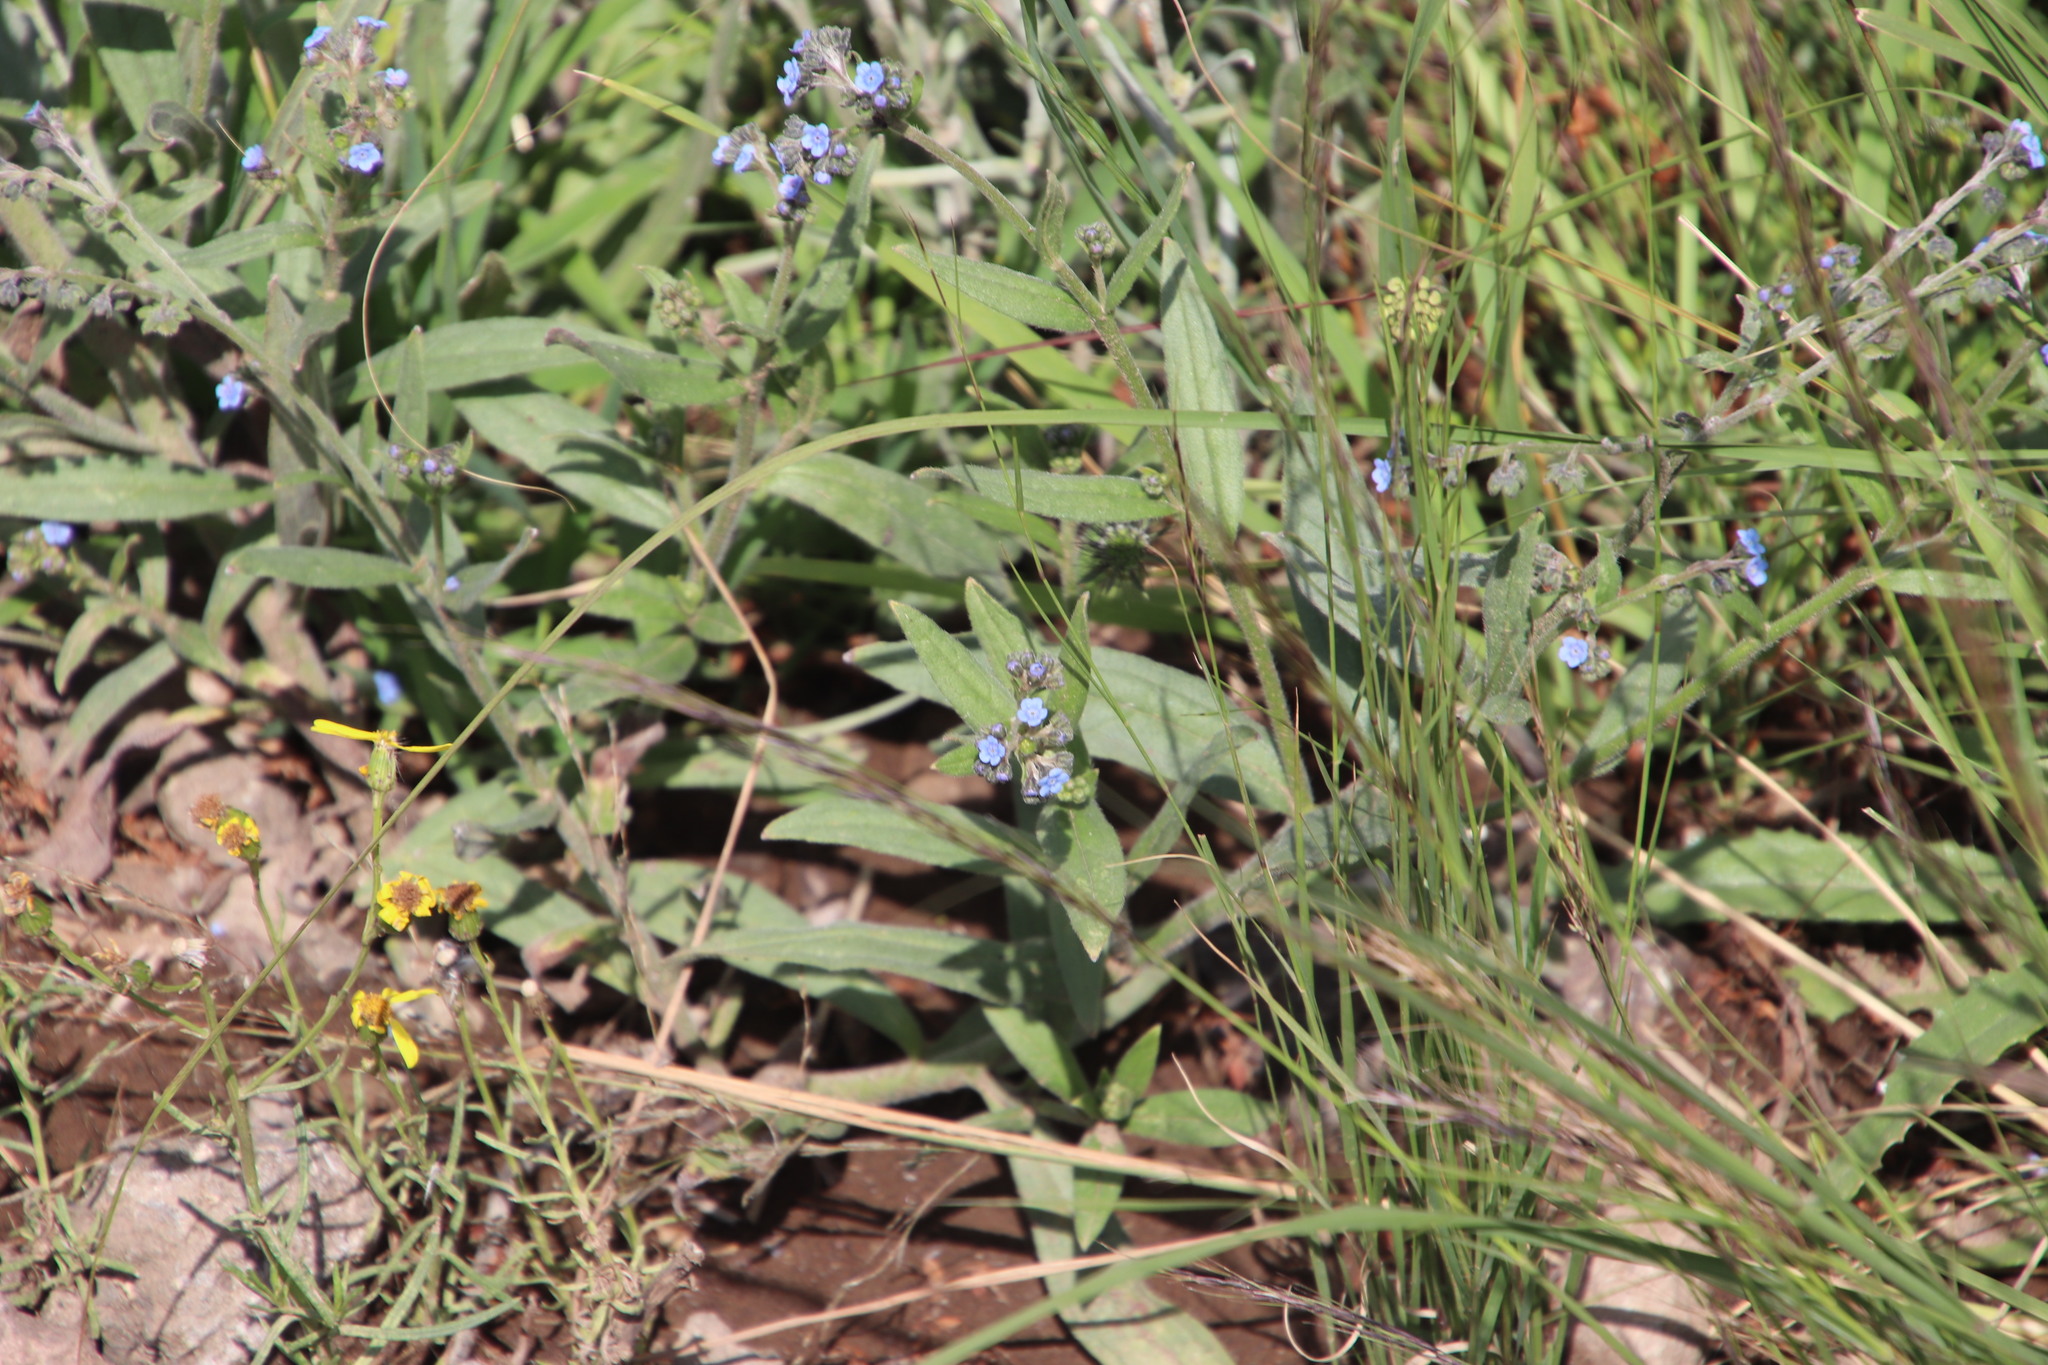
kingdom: Plantae
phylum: Tracheophyta
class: Magnoliopsida
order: Boraginales
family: Boraginaceae
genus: Cynoglossum
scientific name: Cynoglossum amabile
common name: Chinese hound's tongue
